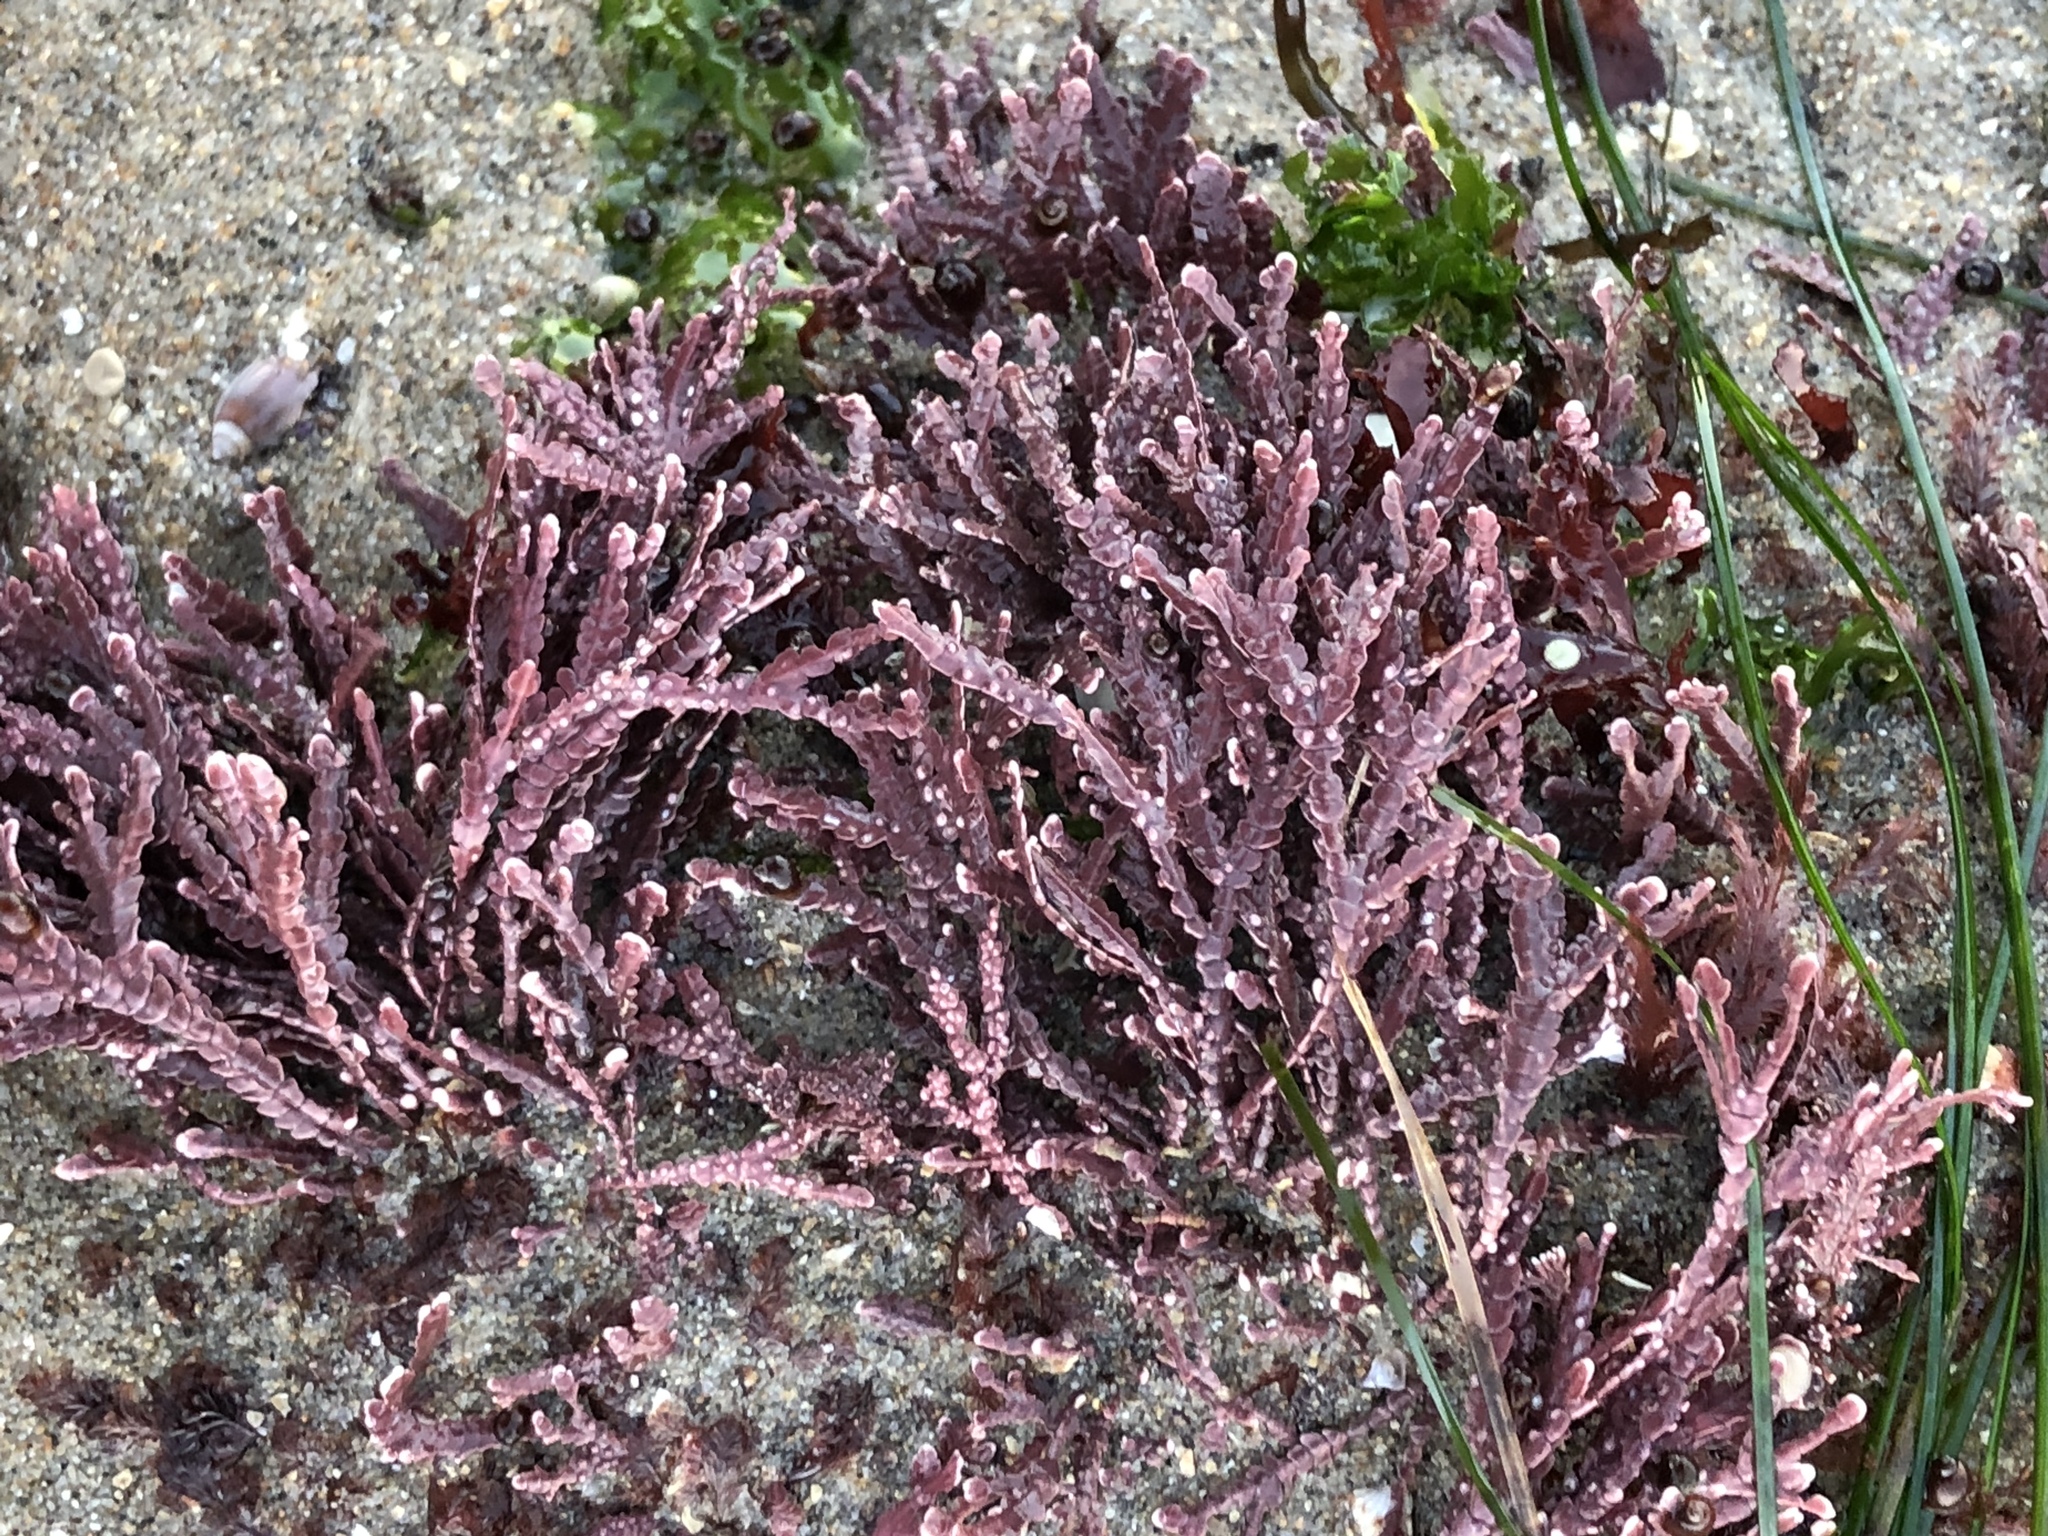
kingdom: Plantae
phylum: Rhodophyta
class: Florideophyceae
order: Corallinales
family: Corallinaceae
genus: Bossiella
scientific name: Bossiella orbigniana
